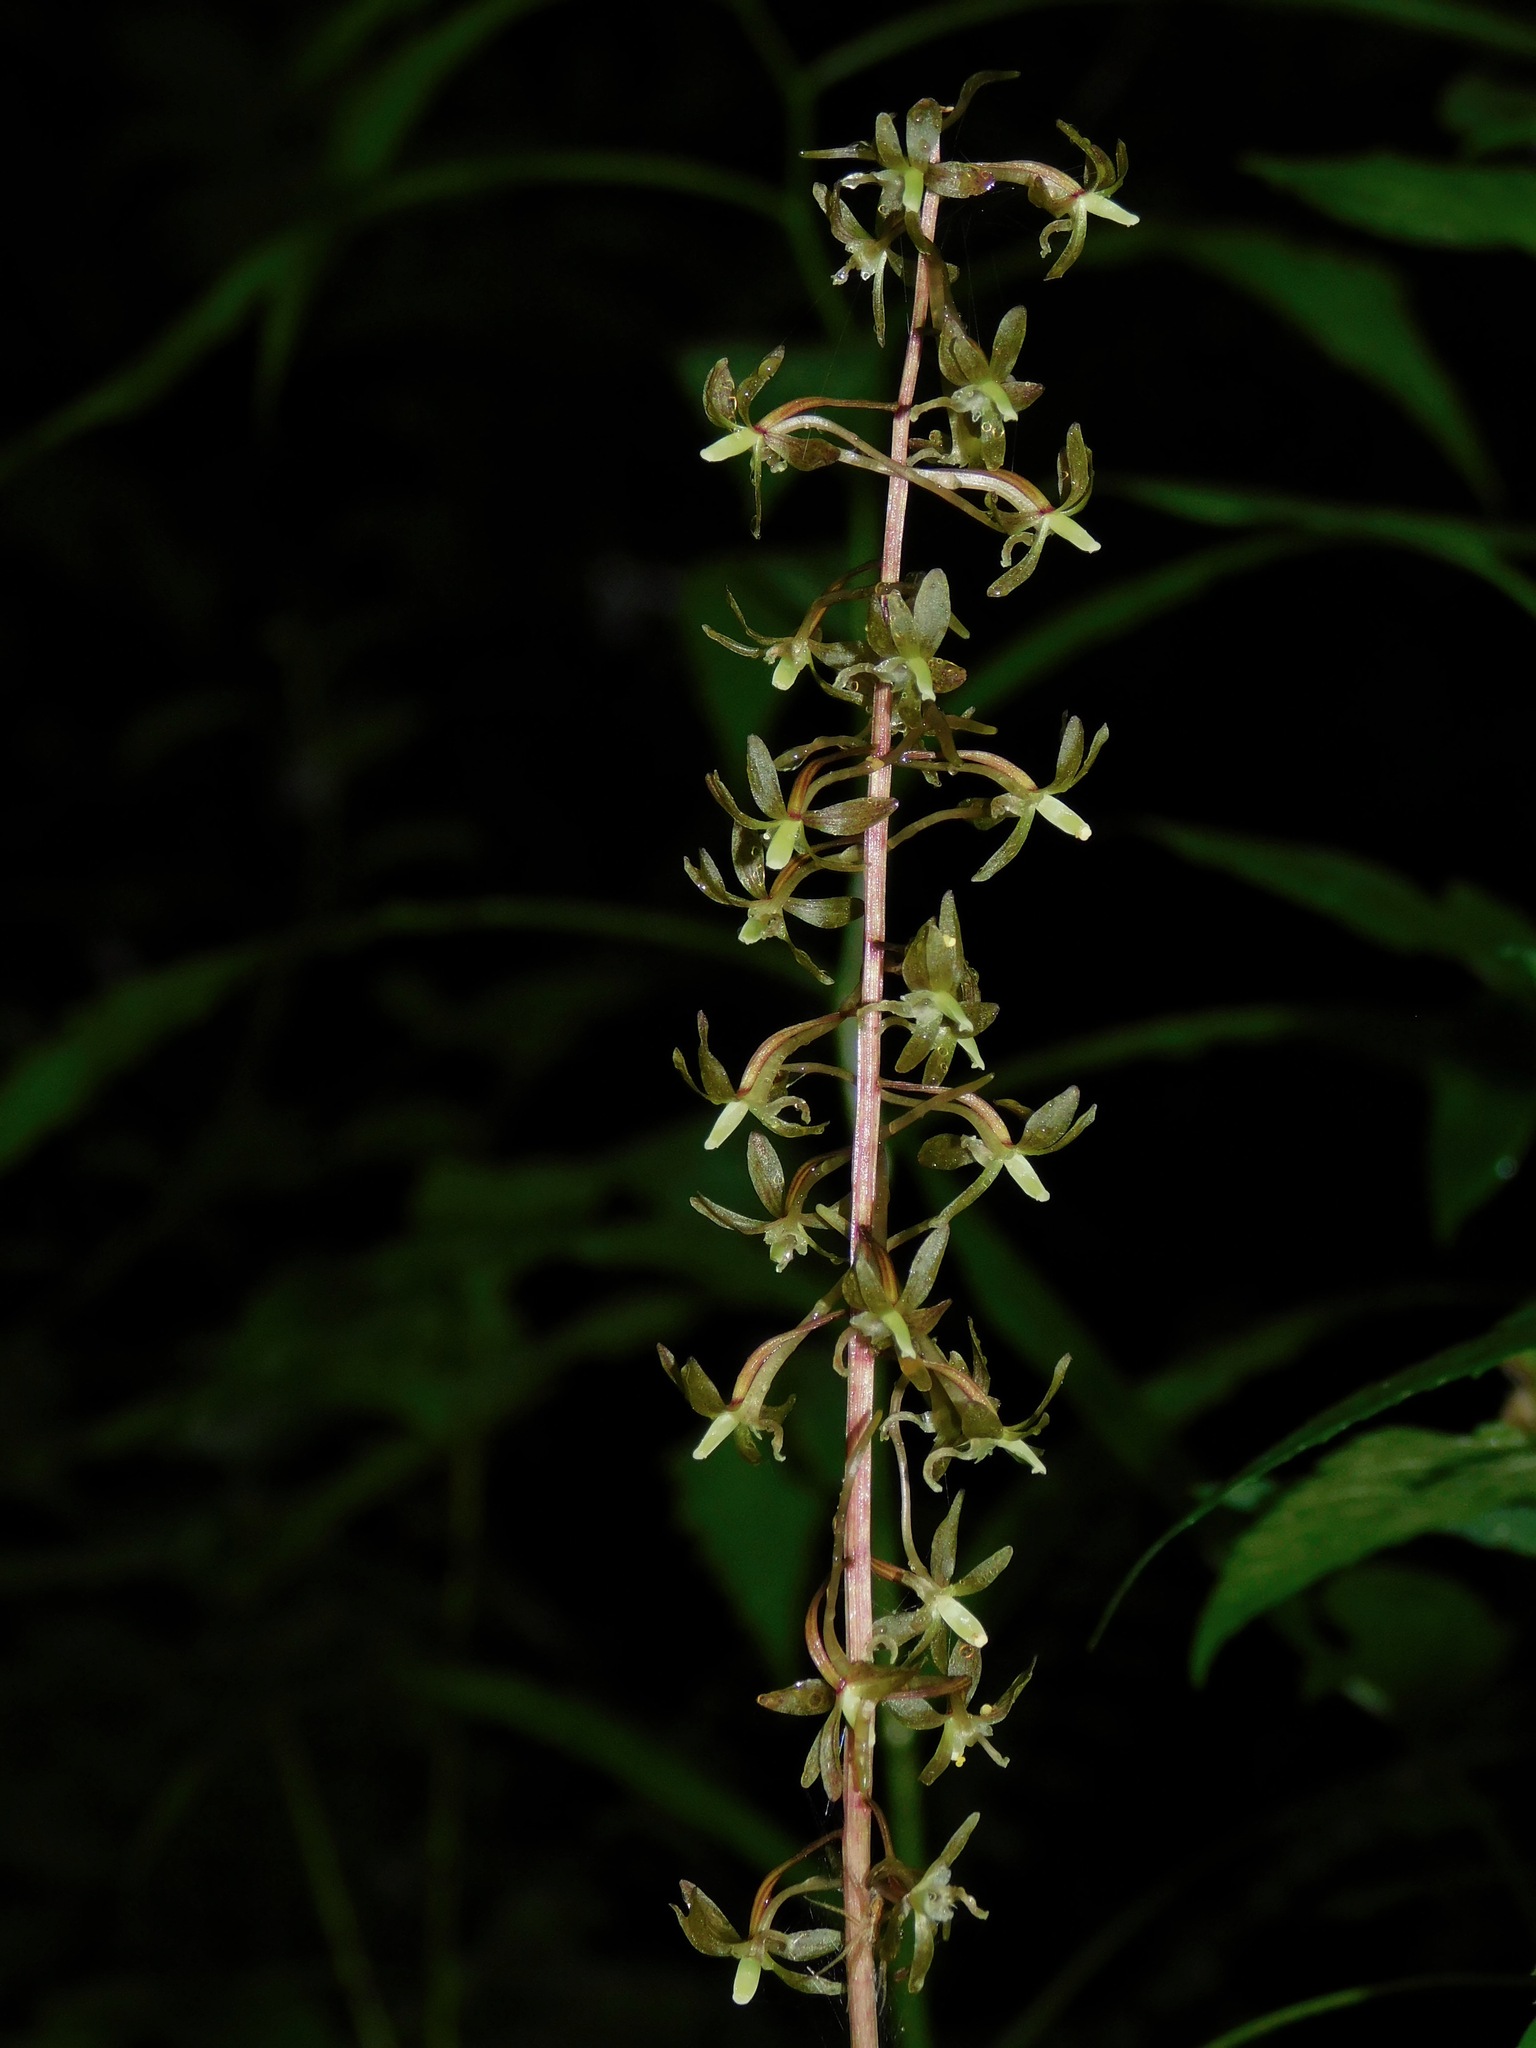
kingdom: Plantae
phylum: Tracheophyta
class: Liliopsida
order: Asparagales
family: Orchidaceae
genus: Tipularia
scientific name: Tipularia discolor
